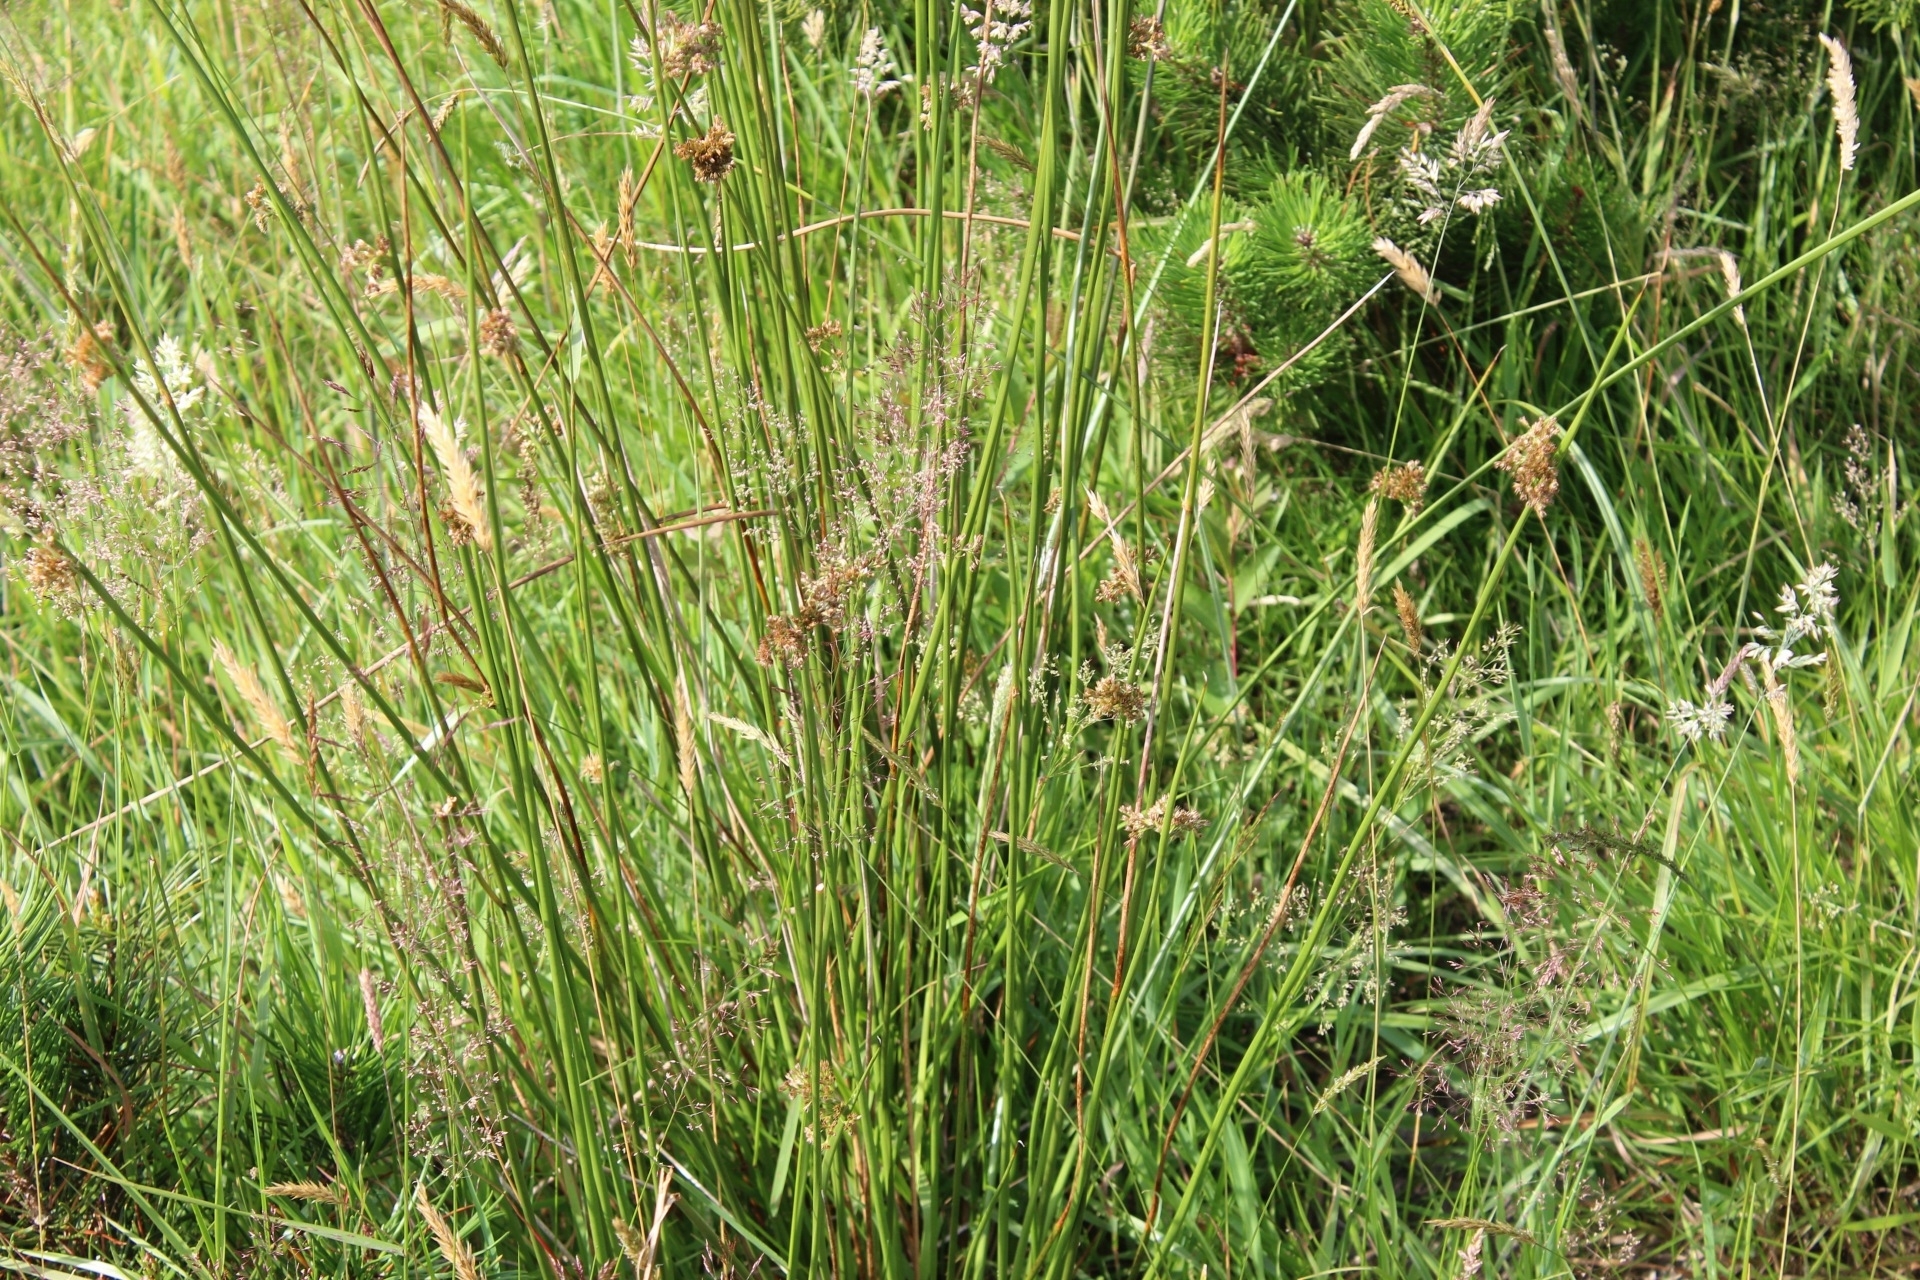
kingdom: Plantae
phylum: Tracheophyta
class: Liliopsida
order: Poales
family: Juncaceae
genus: Juncus
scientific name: Juncus effusus
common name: Soft rush
